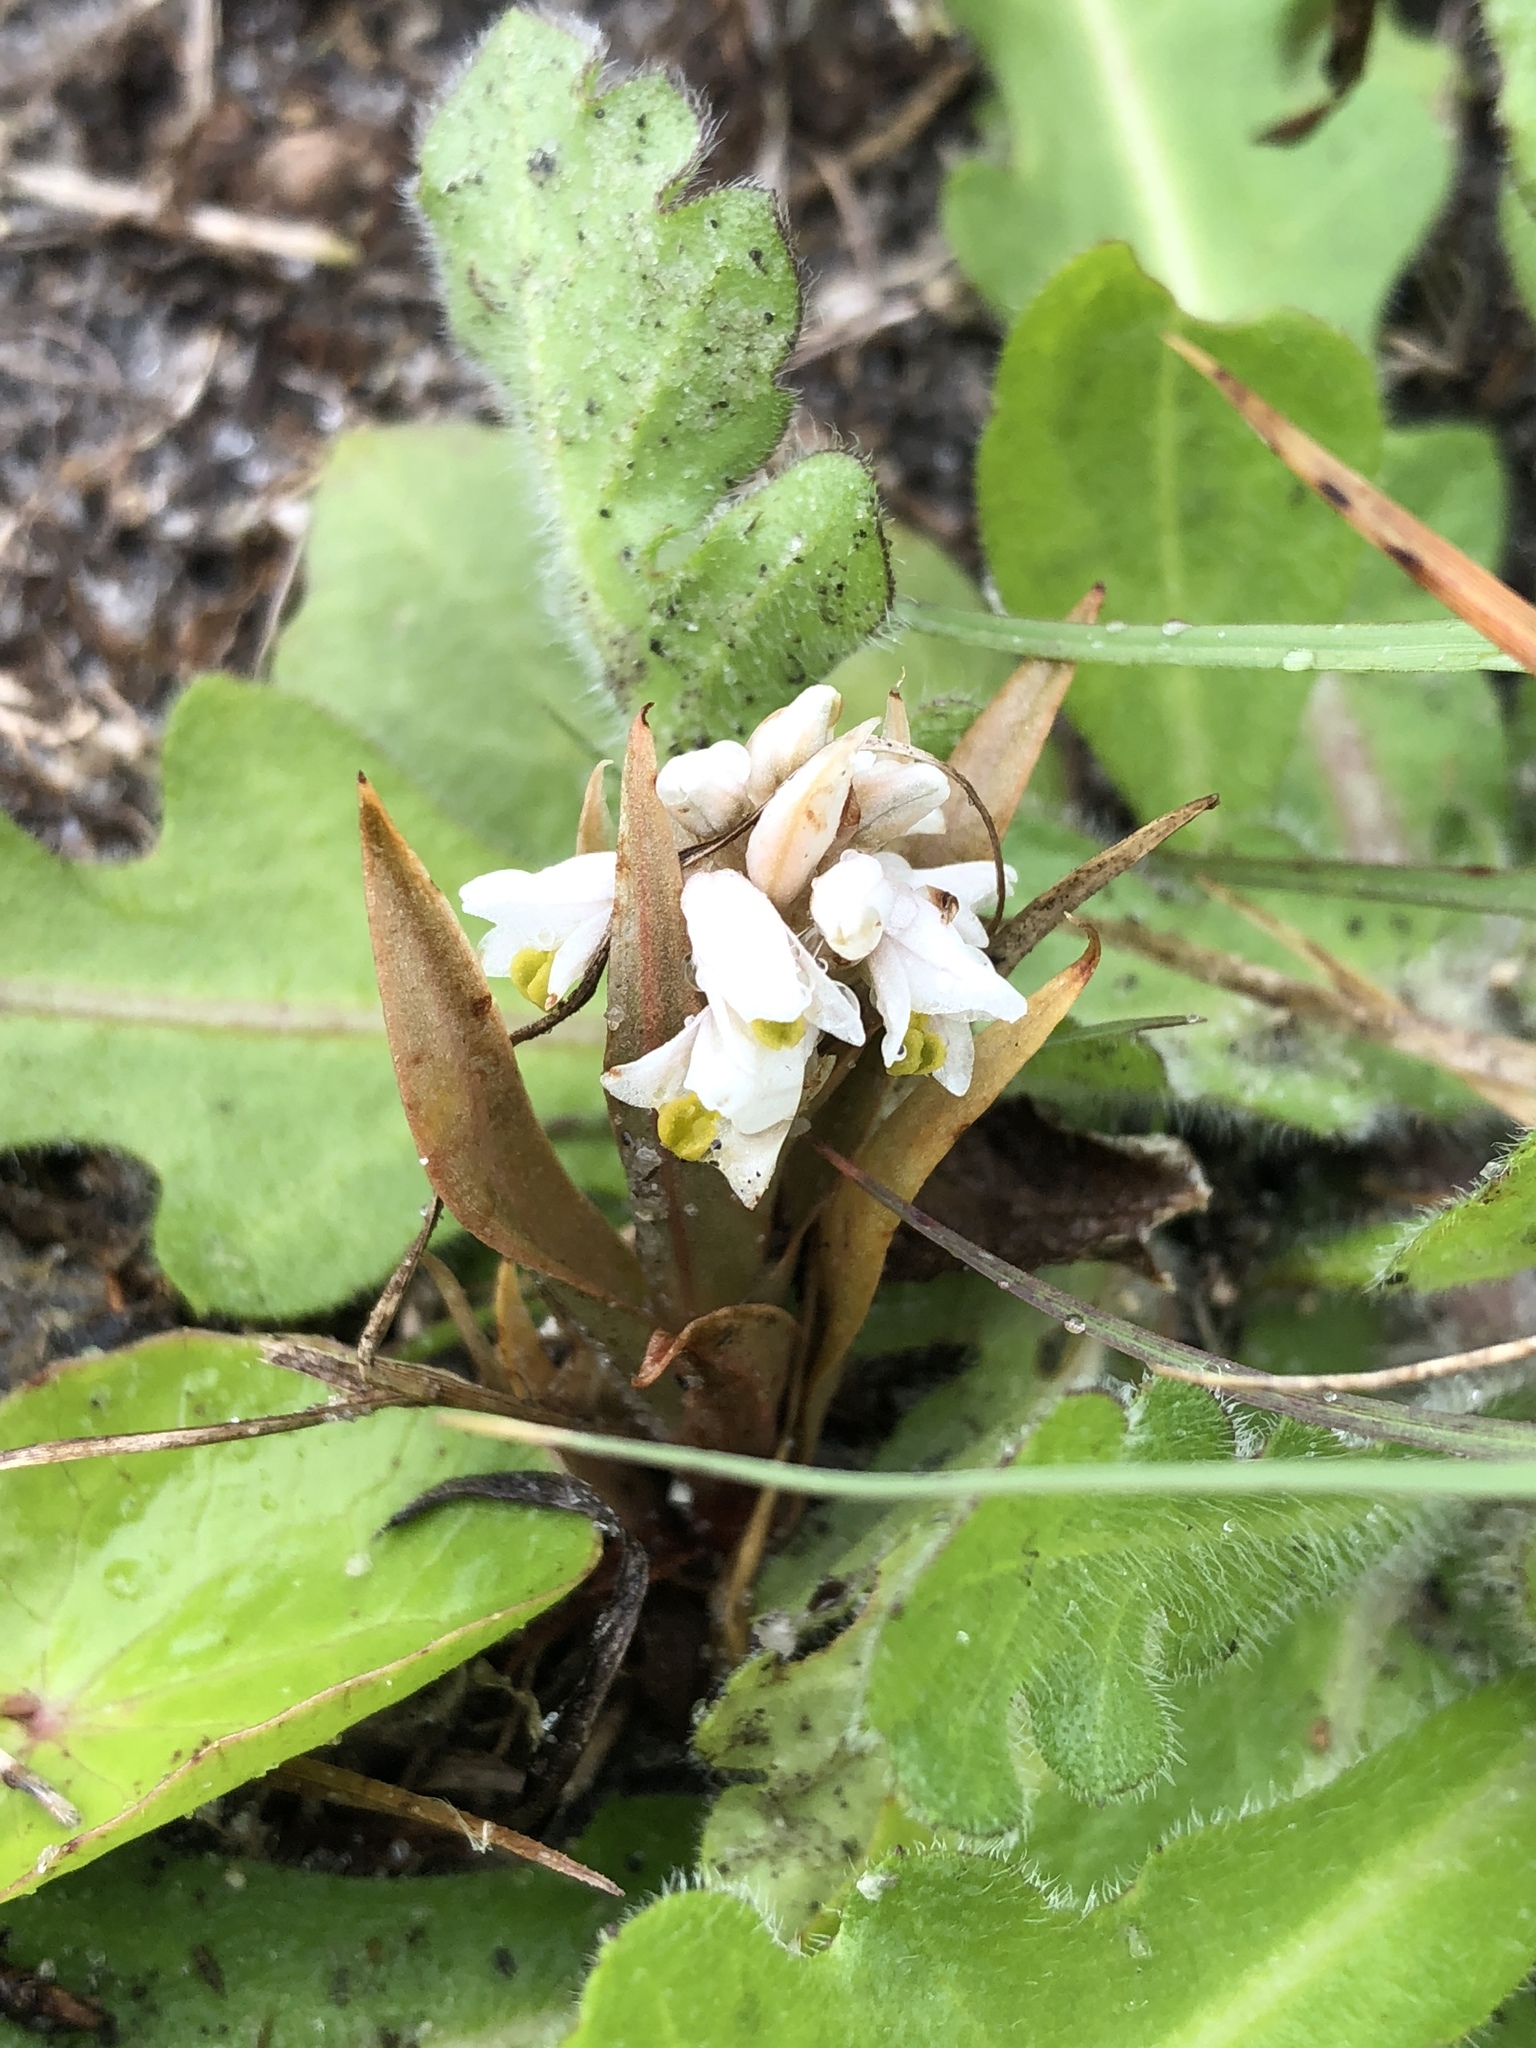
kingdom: Plantae
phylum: Tracheophyta
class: Liliopsida
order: Asparagales
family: Orchidaceae
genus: Zeuxine
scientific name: Zeuxine strateumatica
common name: Soldier's orchid
